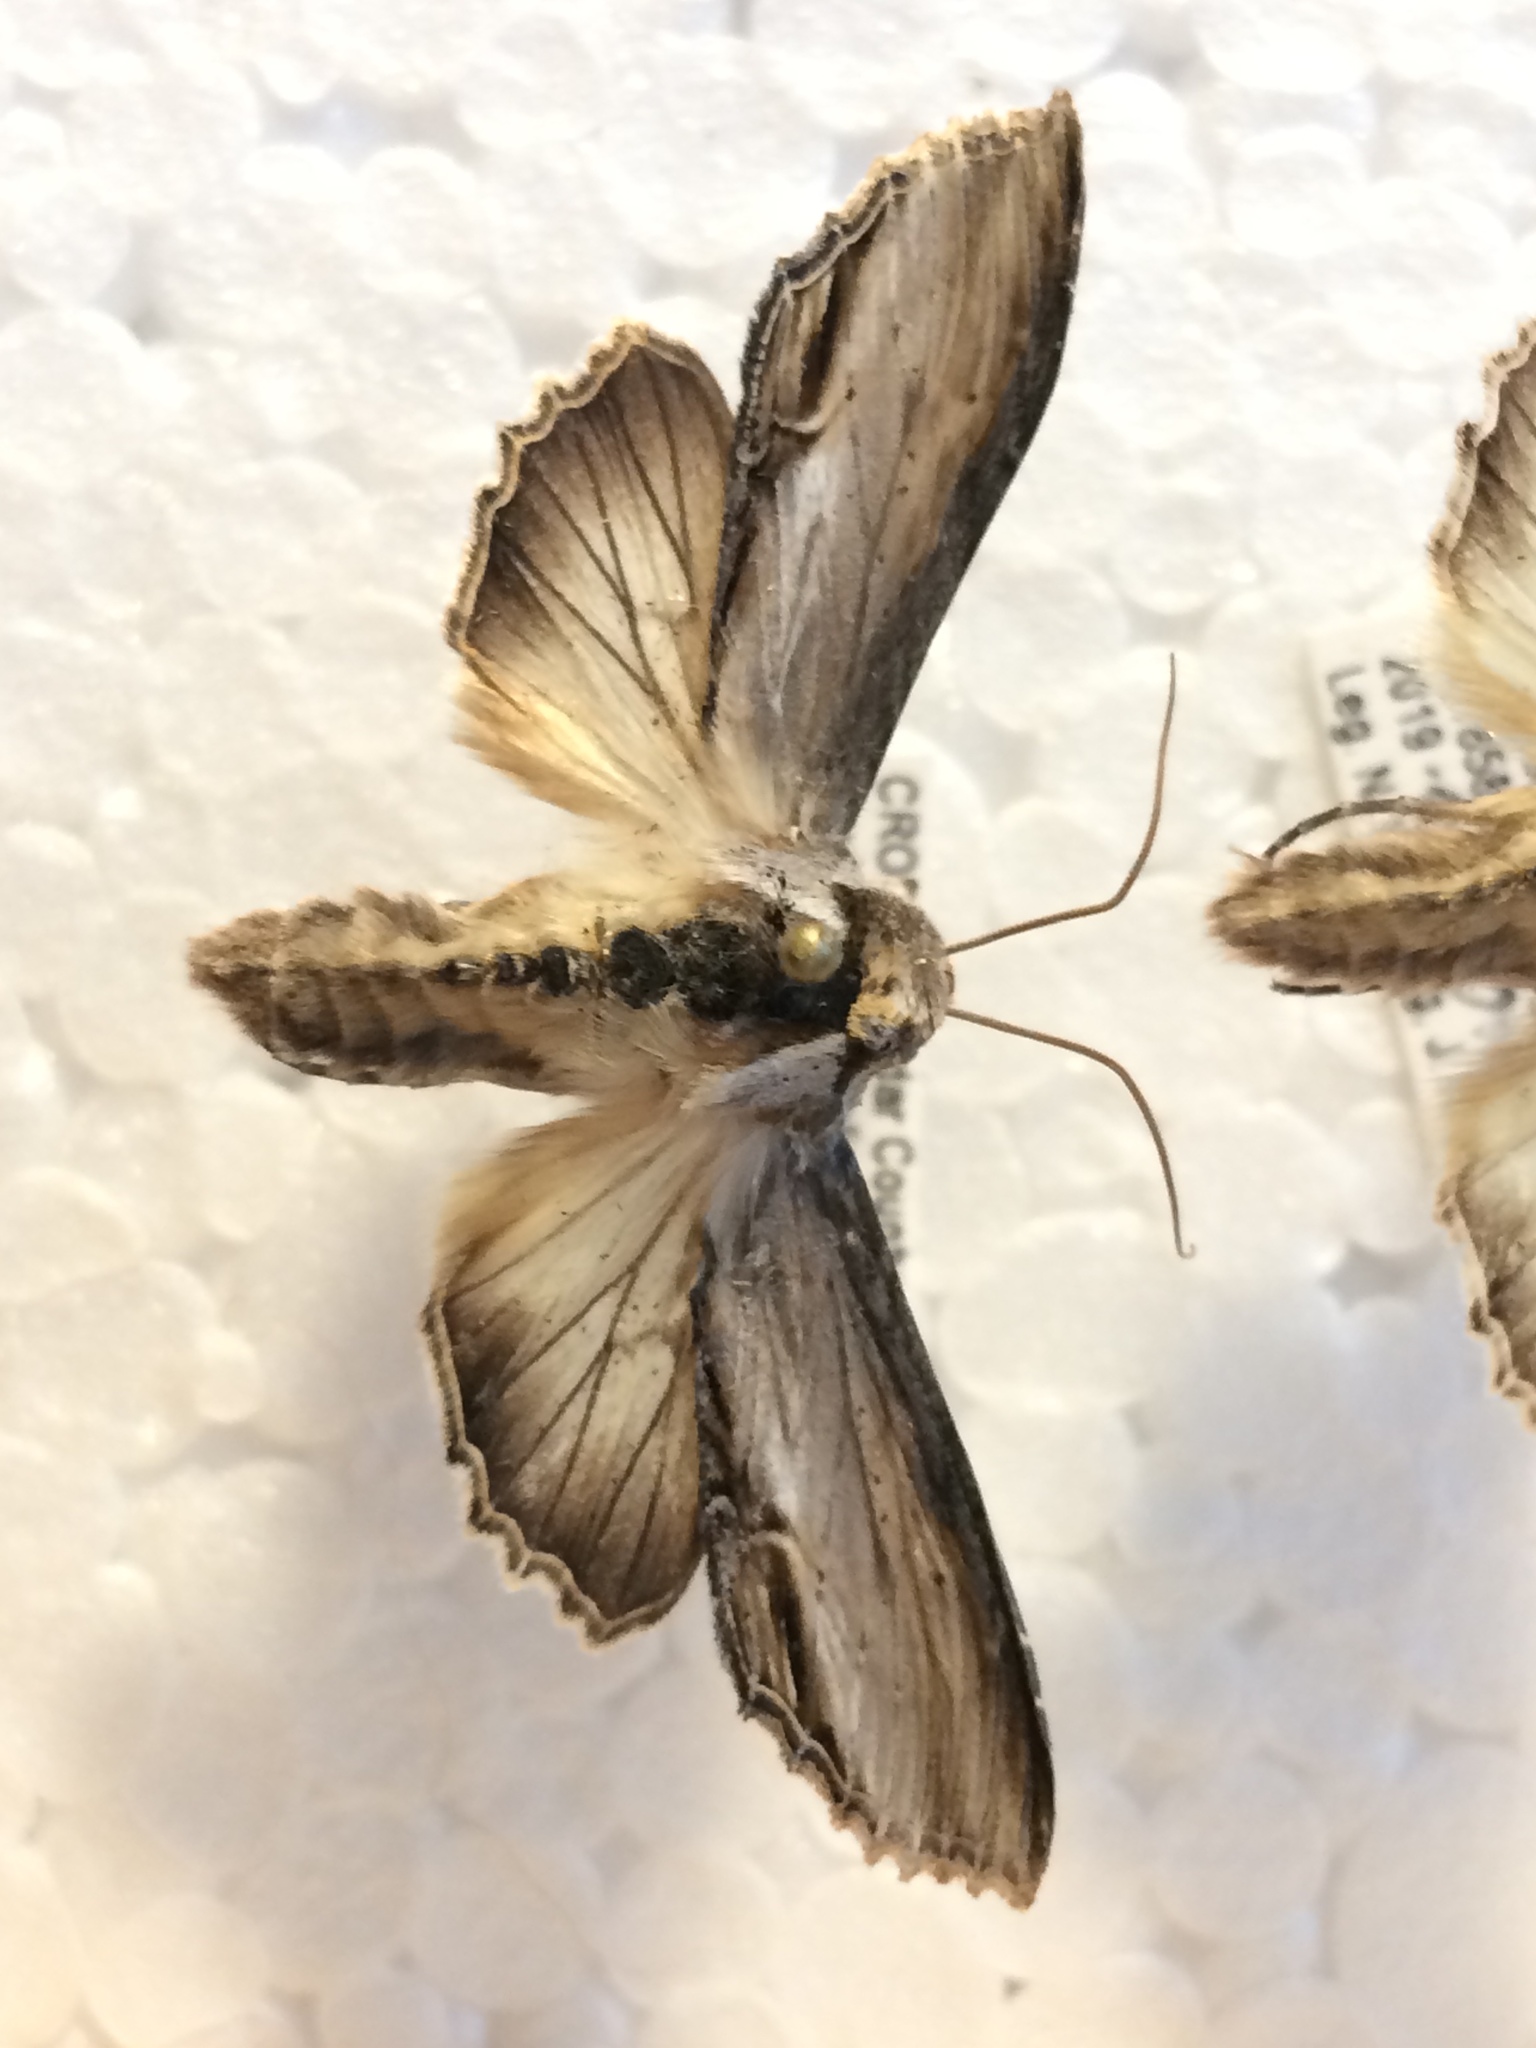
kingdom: Animalia
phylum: Arthropoda
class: Insecta
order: Lepidoptera
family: Noctuidae
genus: Cucullia
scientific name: Cucullia caninae
